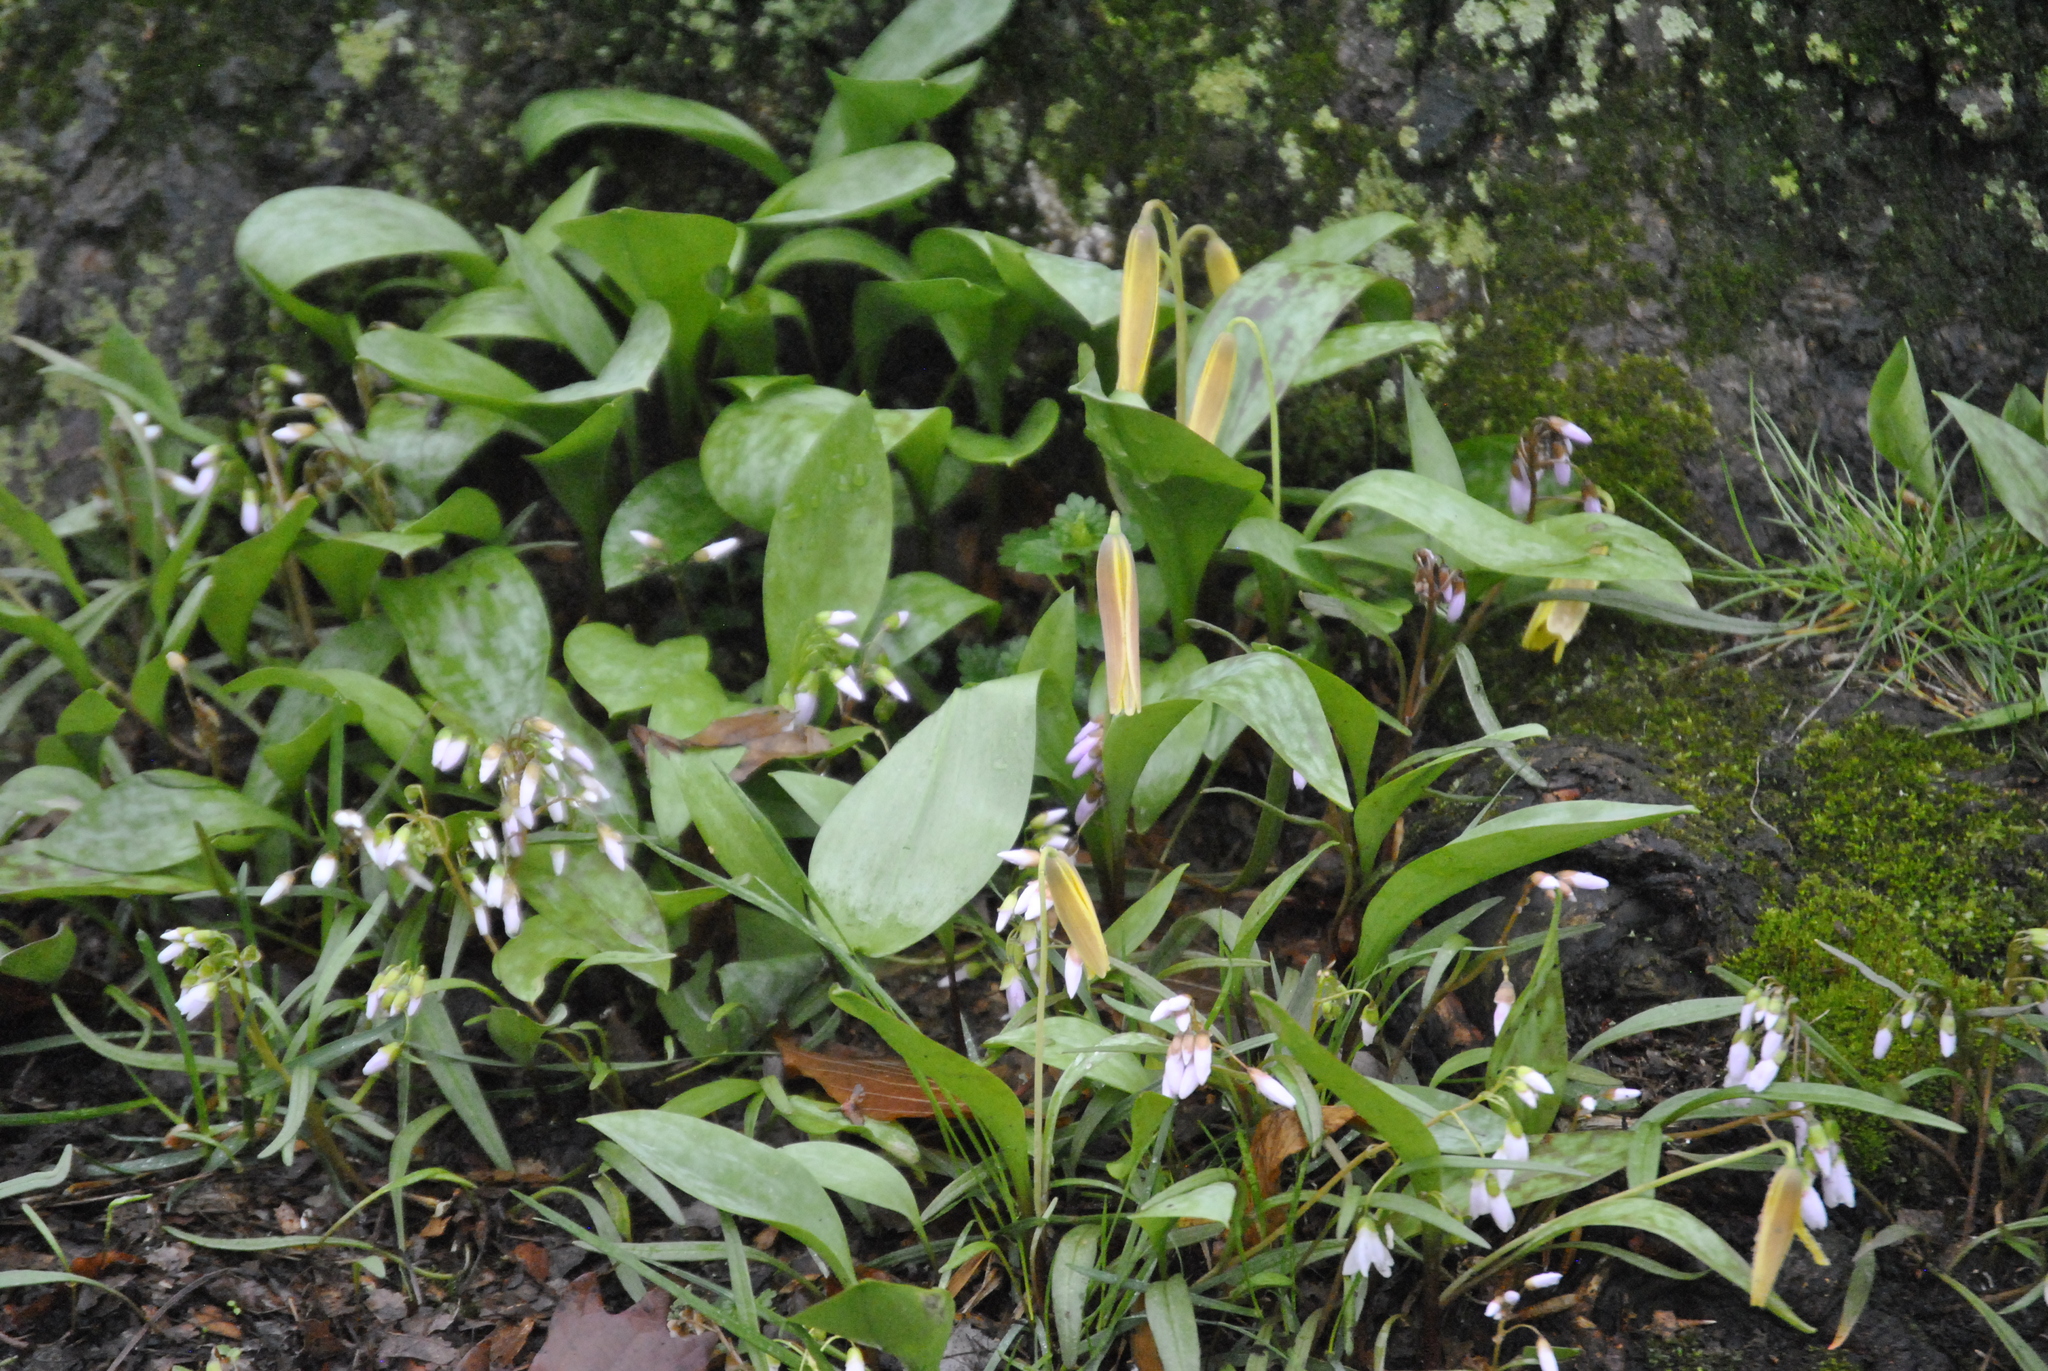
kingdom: Plantae
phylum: Tracheophyta
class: Liliopsida
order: Liliales
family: Liliaceae
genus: Erythronium
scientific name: Erythronium americanum
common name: Yellow adder's-tongue
